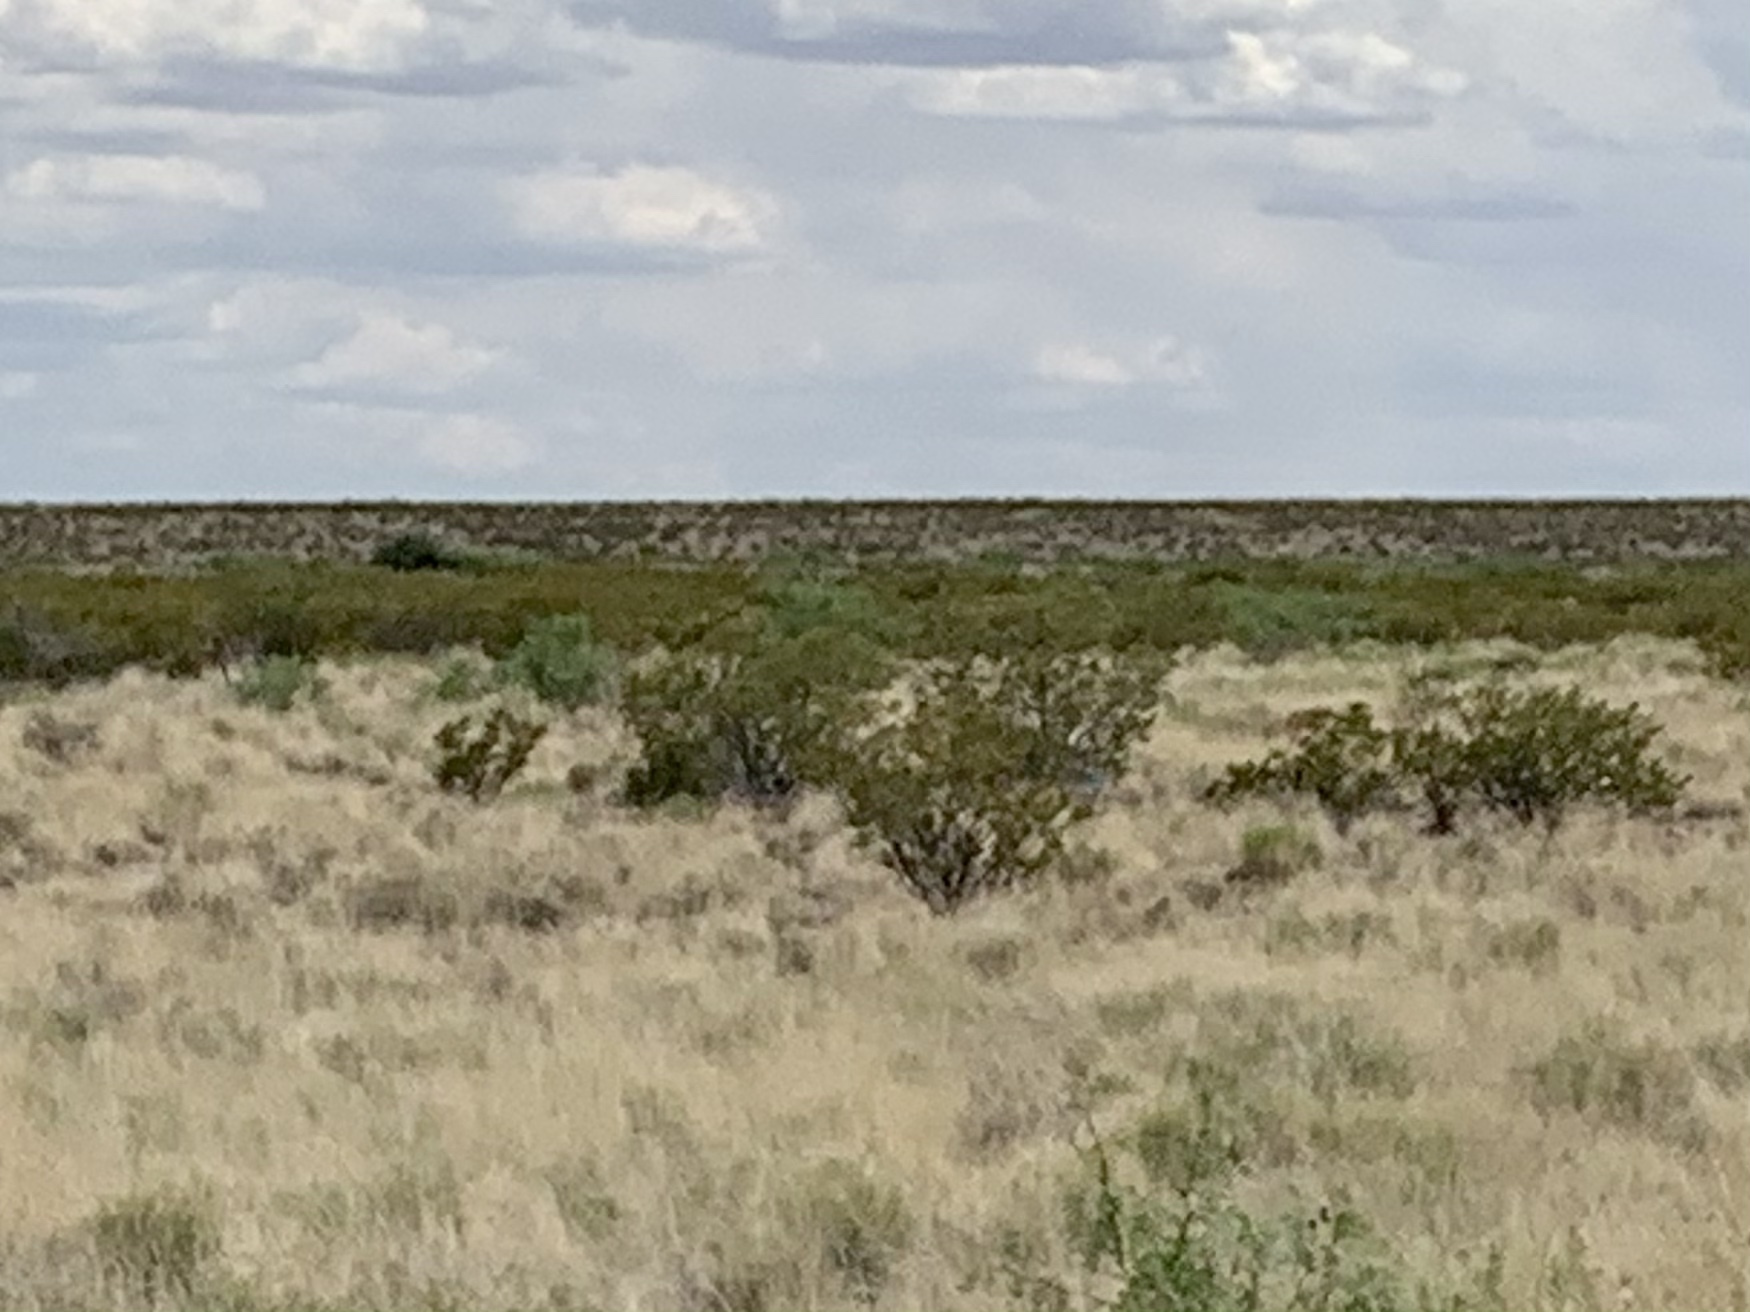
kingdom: Plantae
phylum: Tracheophyta
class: Magnoliopsida
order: Zygophyllales
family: Zygophyllaceae
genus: Larrea
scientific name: Larrea tridentata
